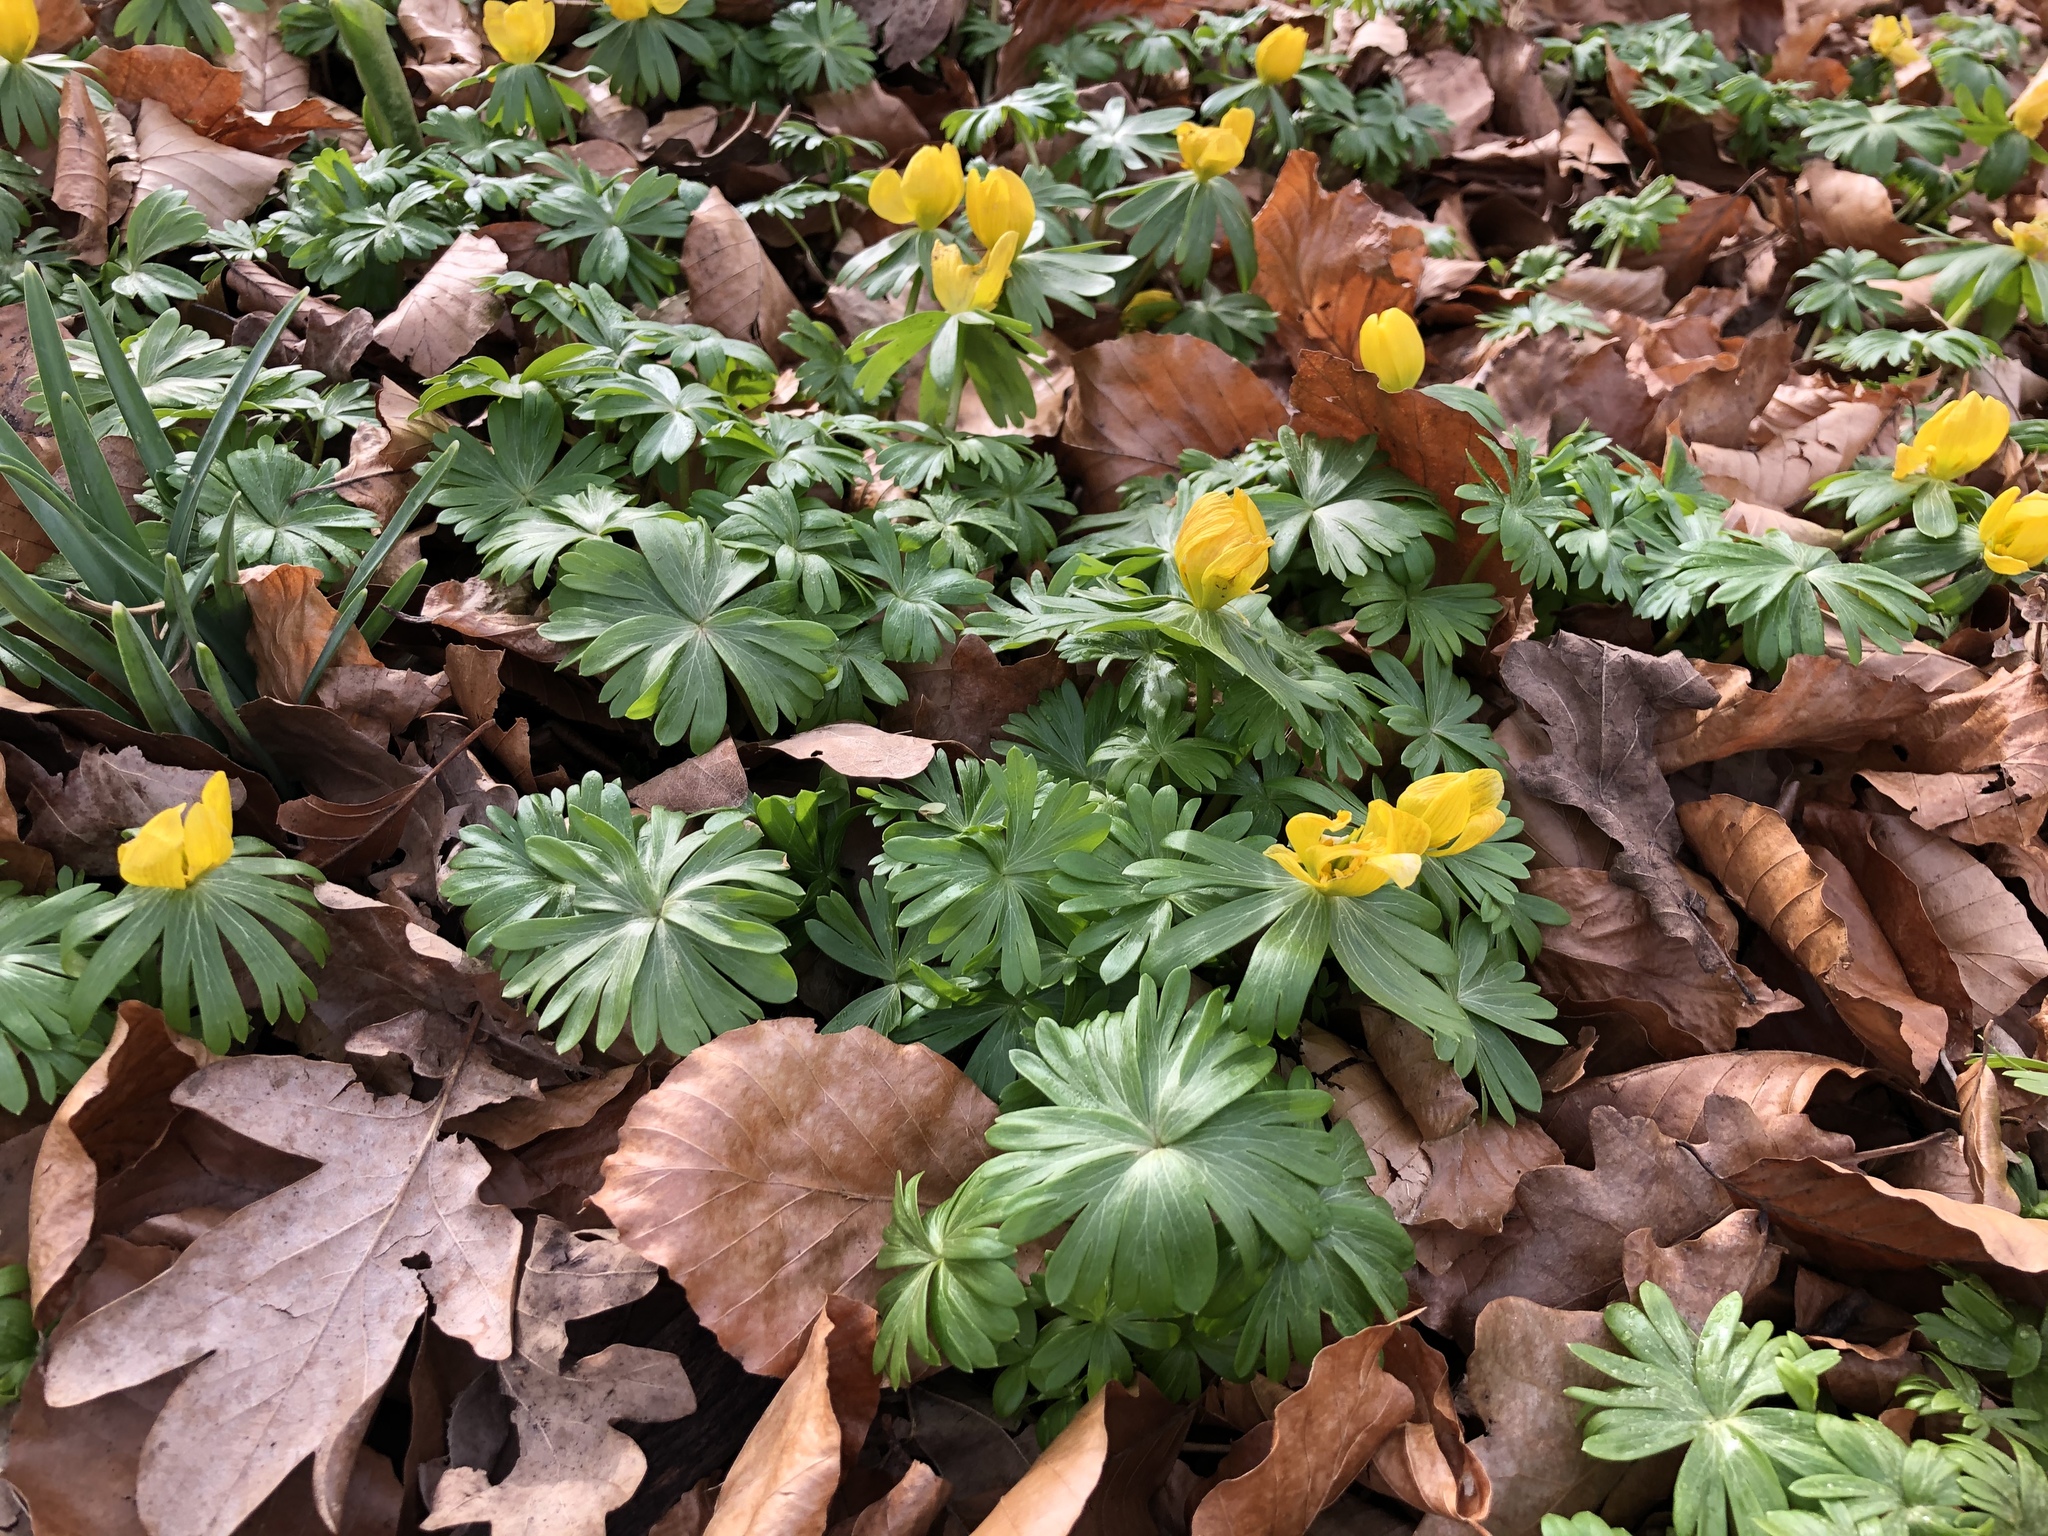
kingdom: Plantae
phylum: Tracheophyta
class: Magnoliopsida
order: Ranunculales
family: Ranunculaceae
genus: Eranthis
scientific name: Eranthis hyemalis
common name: Winter aconite
